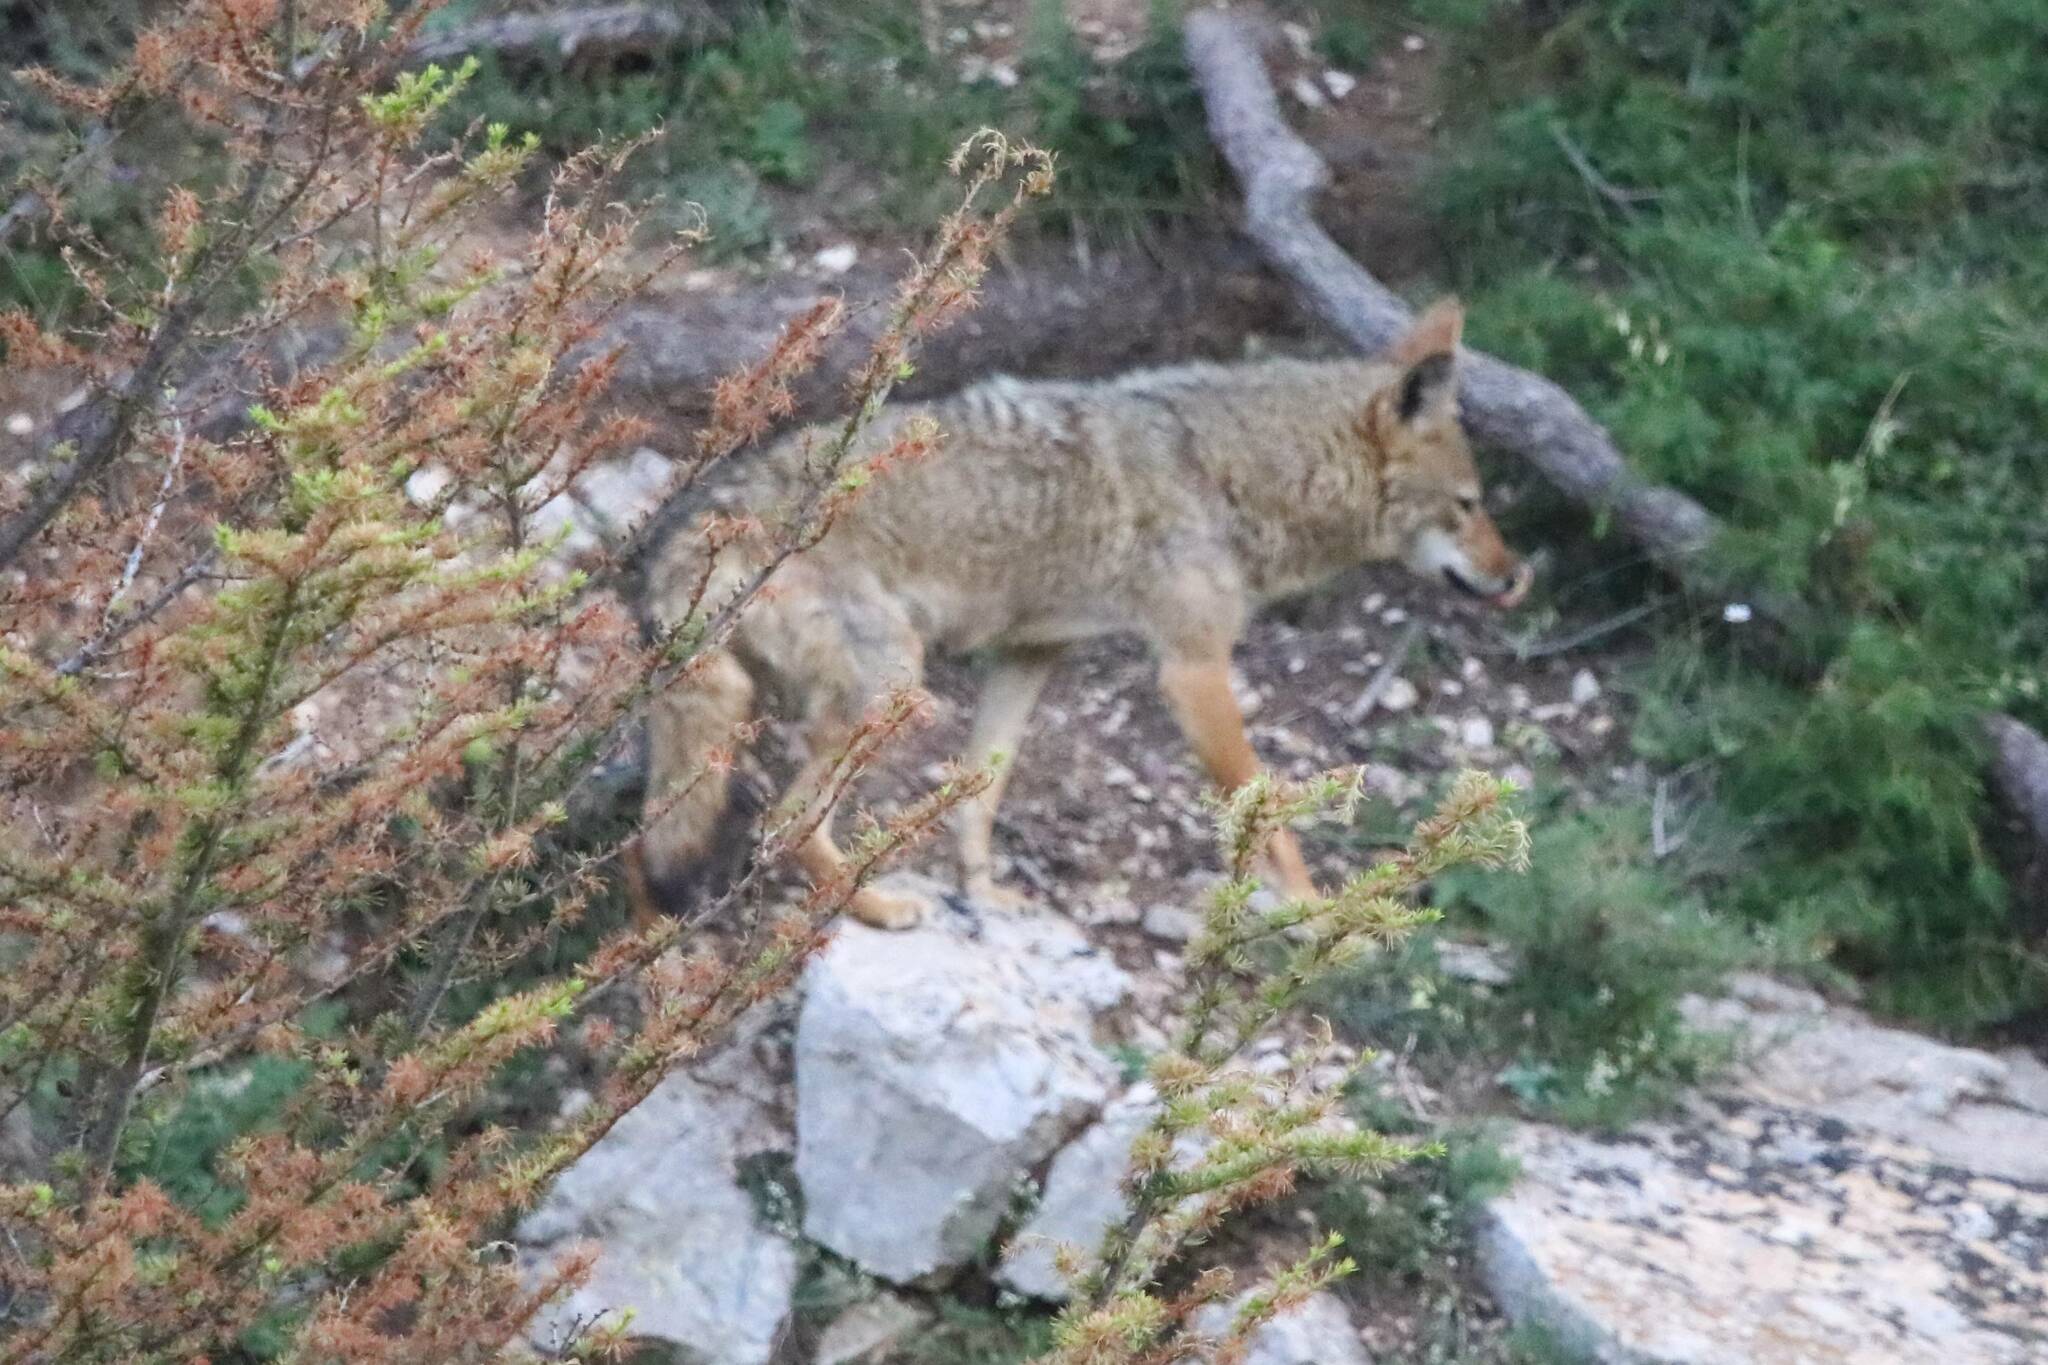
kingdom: Animalia
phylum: Chordata
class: Mammalia
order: Carnivora
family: Canidae
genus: Canis
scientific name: Canis lupaster
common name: African golden wolf
